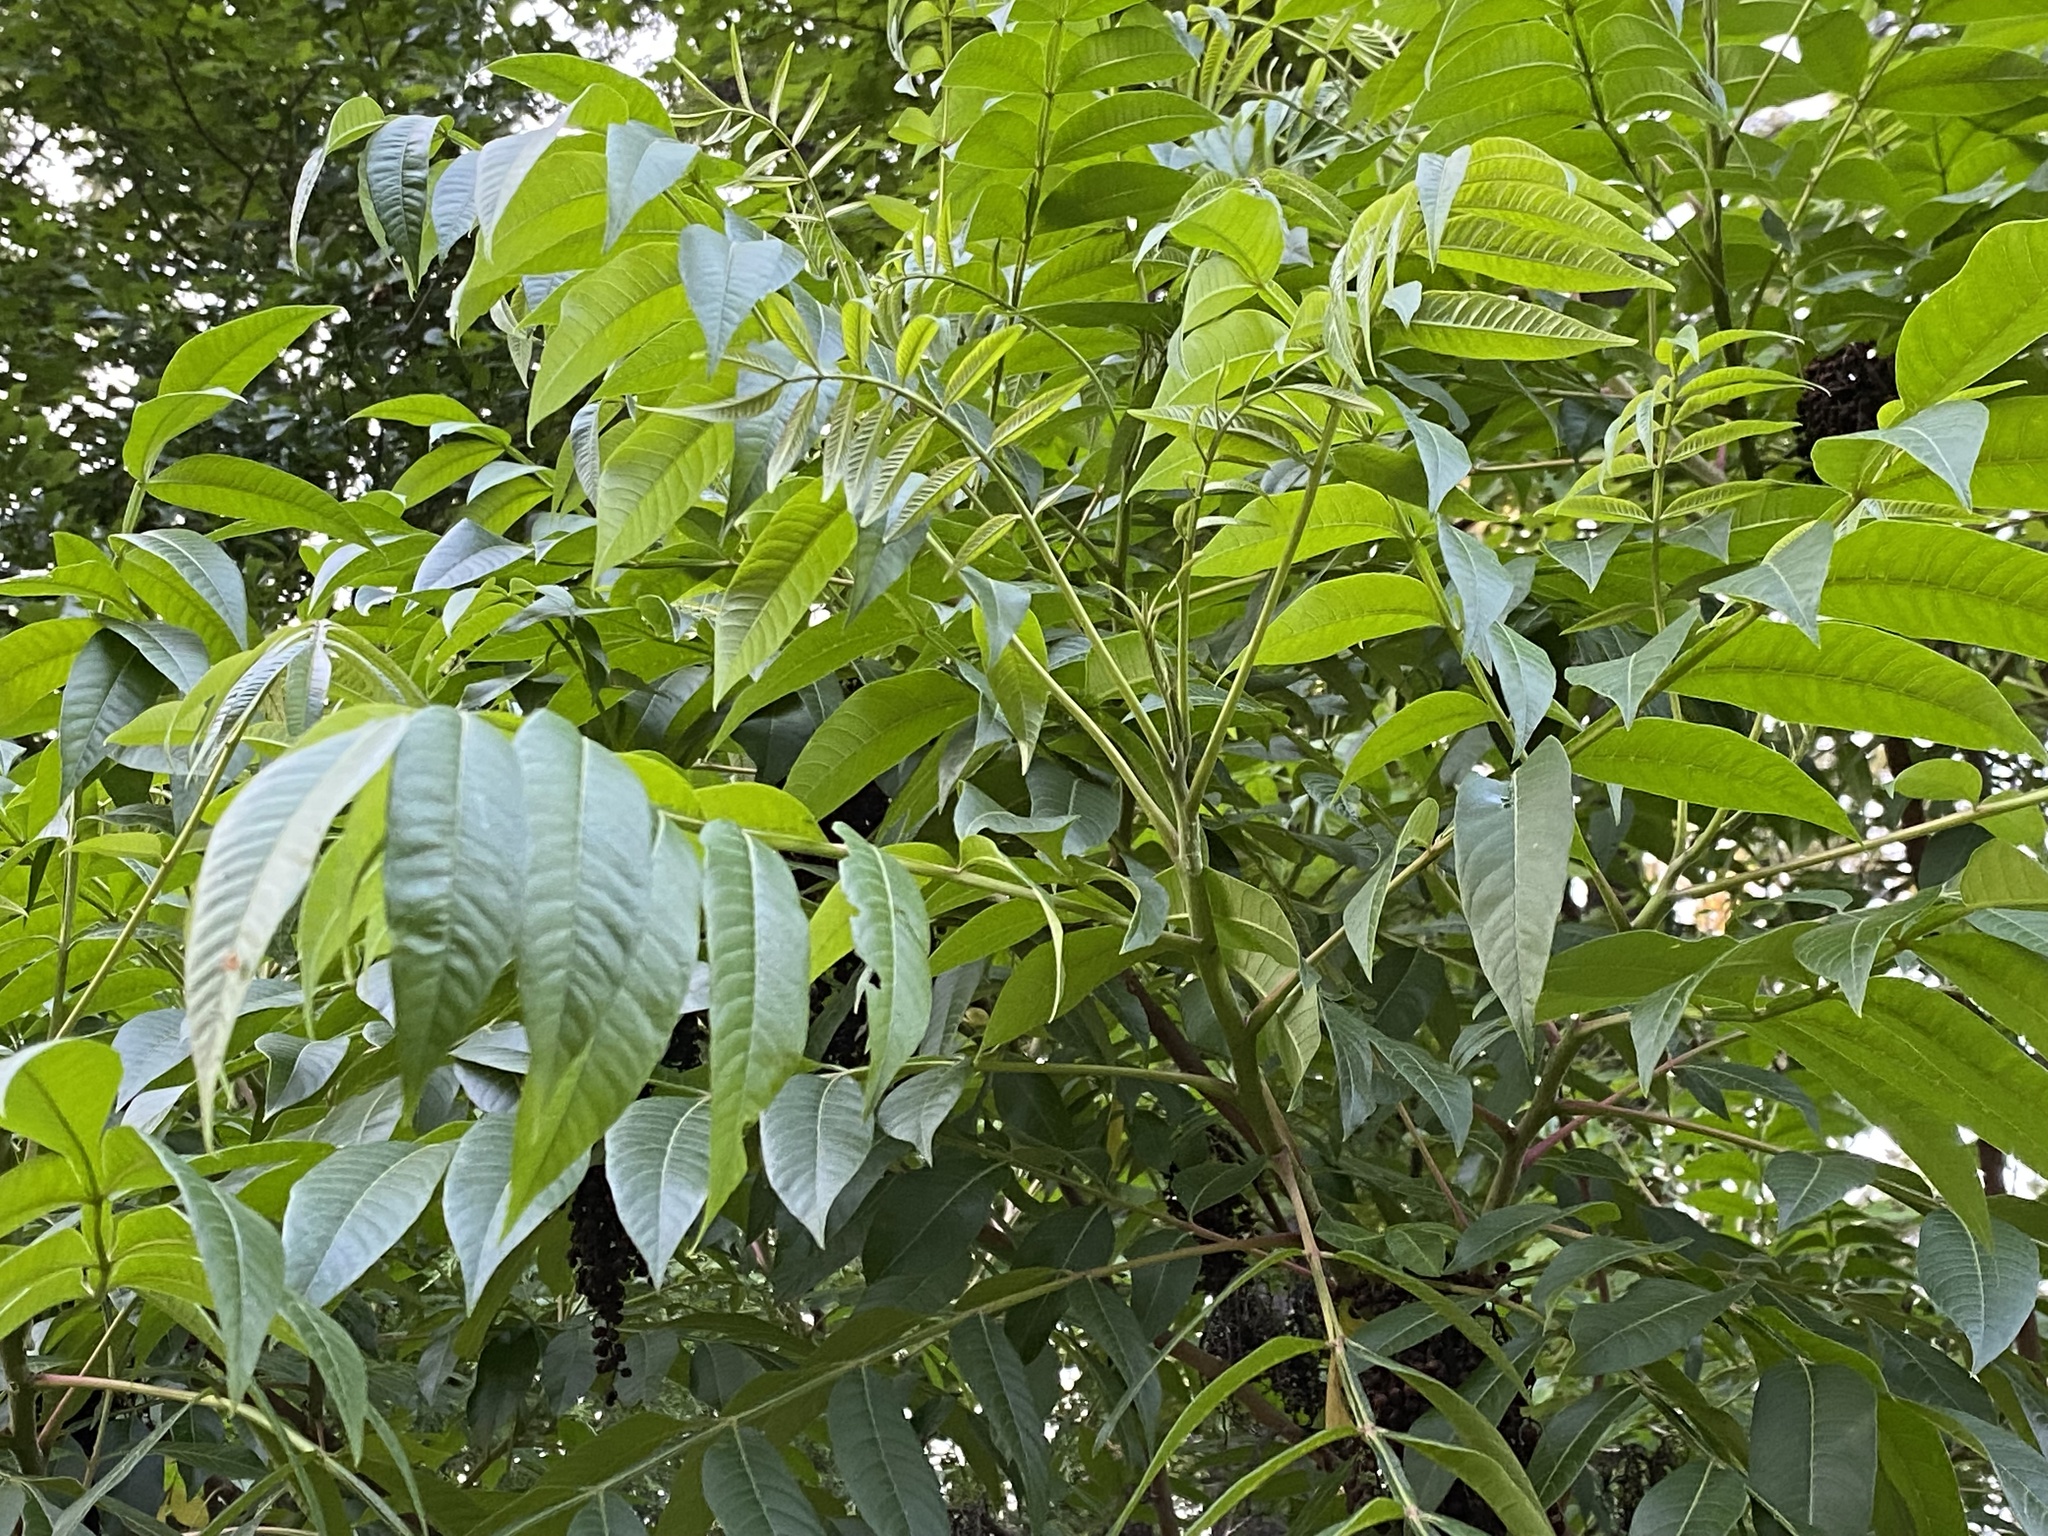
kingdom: Plantae
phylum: Tracheophyta
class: Magnoliopsida
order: Sapindales
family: Anacardiaceae
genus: Rhus
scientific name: Rhus glabra
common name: Scarlet sumac
